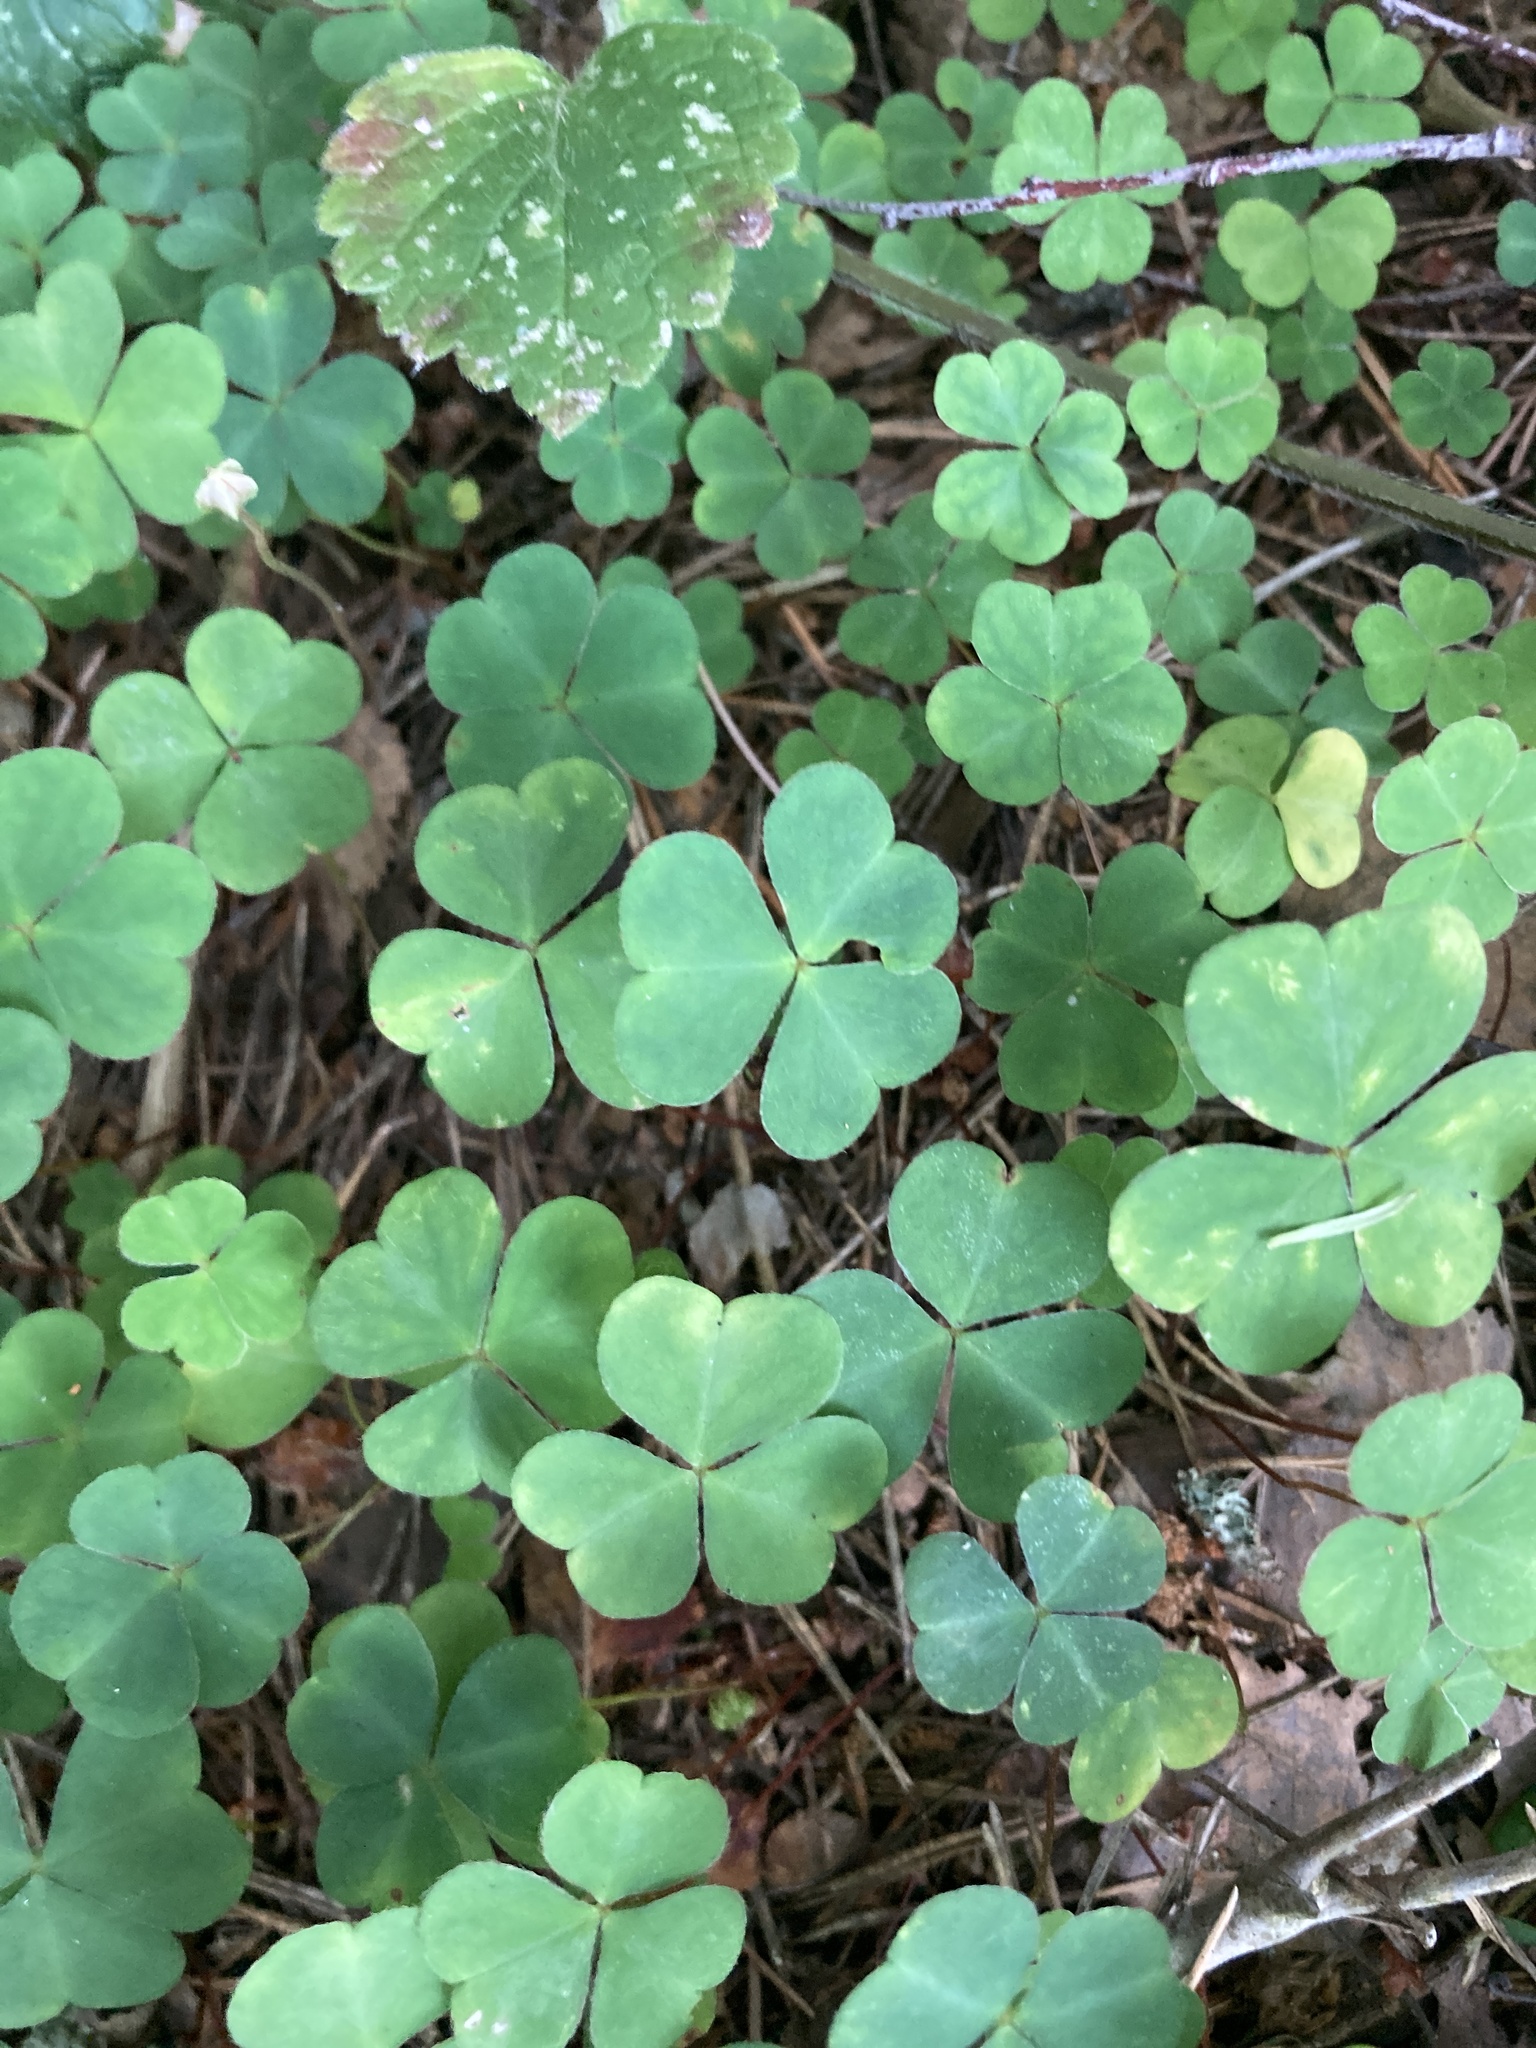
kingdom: Plantae
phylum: Tracheophyta
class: Magnoliopsida
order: Oxalidales
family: Oxalidaceae
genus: Oxalis
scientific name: Oxalis acetosella
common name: Wood-sorrel
